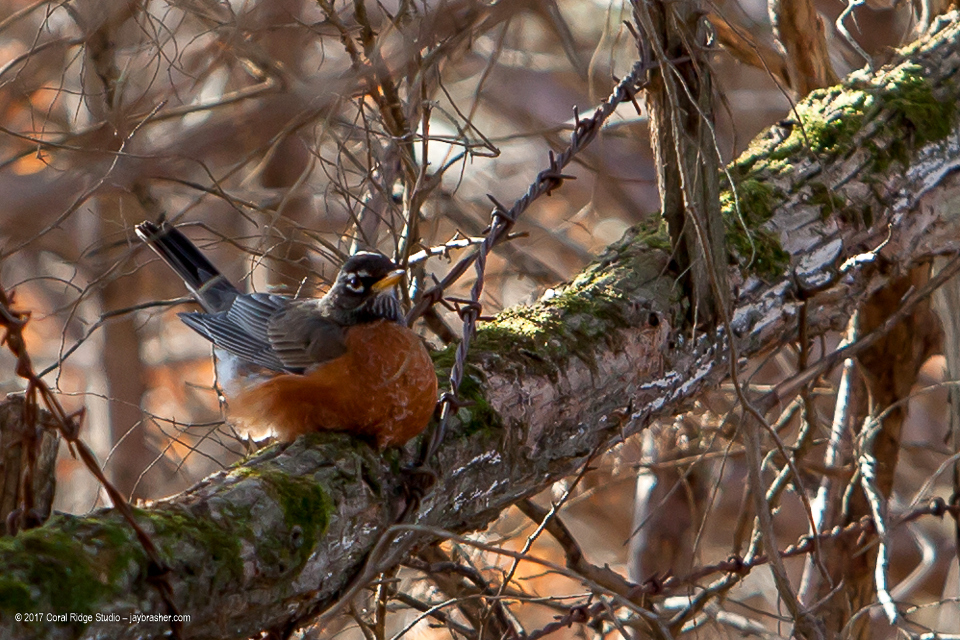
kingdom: Animalia
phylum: Chordata
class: Aves
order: Passeriformes
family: Turdidae
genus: Turdus
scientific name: Turdus migratorius
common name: American robin
